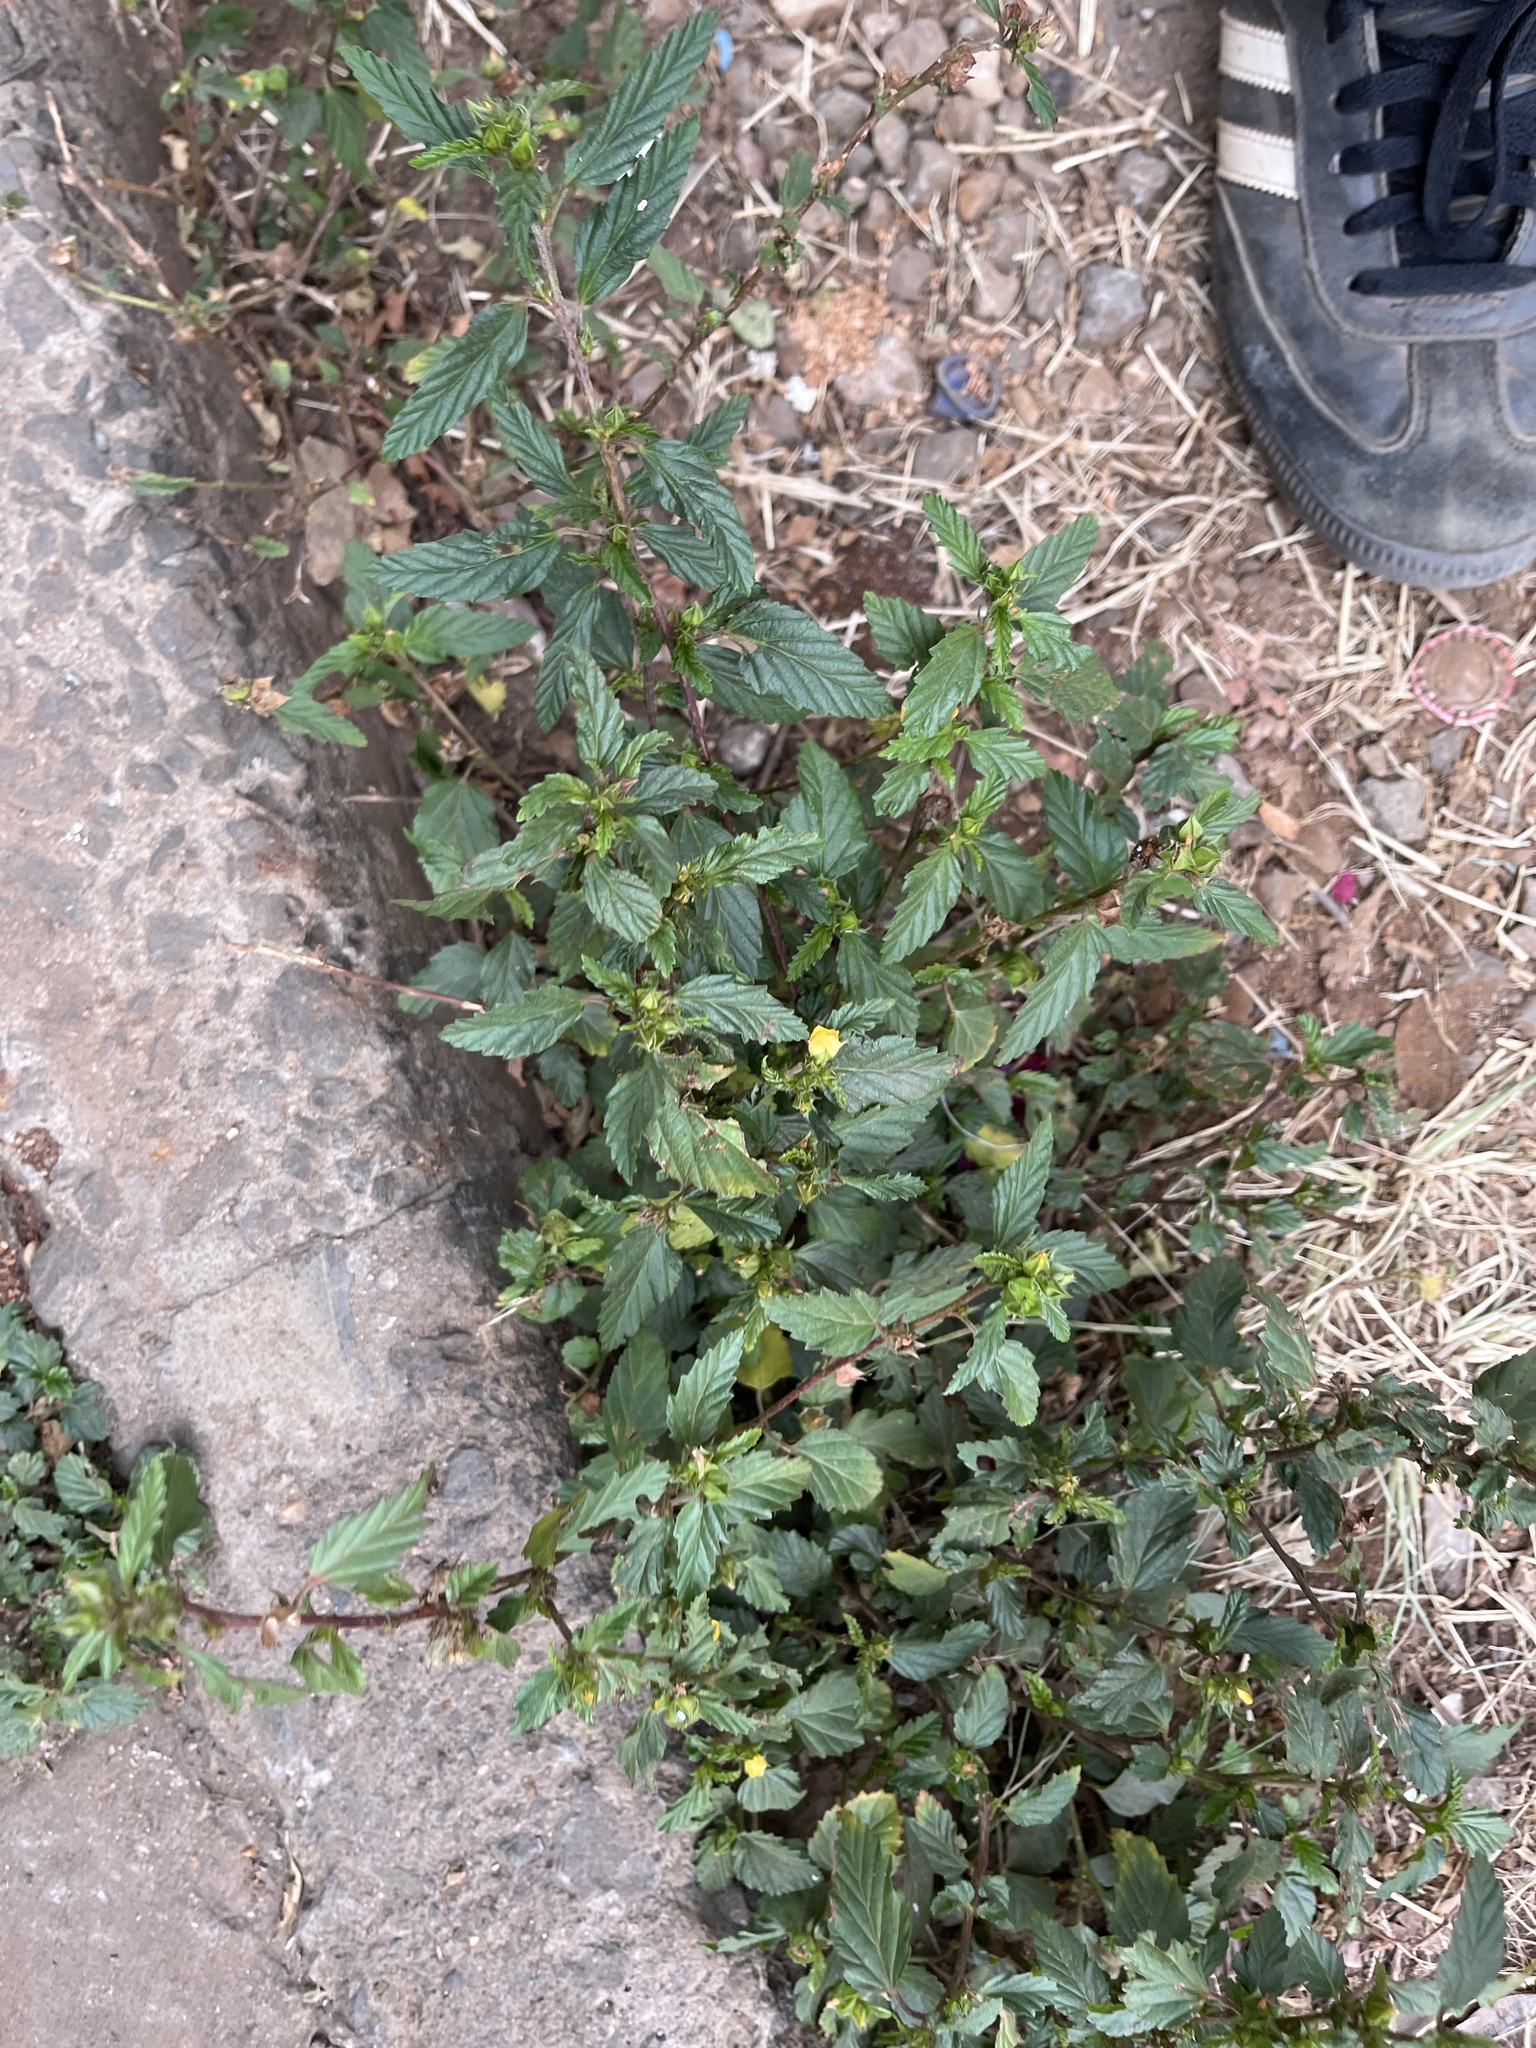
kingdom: Plantae
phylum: Tracheophyta
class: Magnoliopsida
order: Malvales
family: Malvaceae
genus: Malvastrum
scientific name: Malvastrum coromandelianum
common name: Threelobe false mallow
